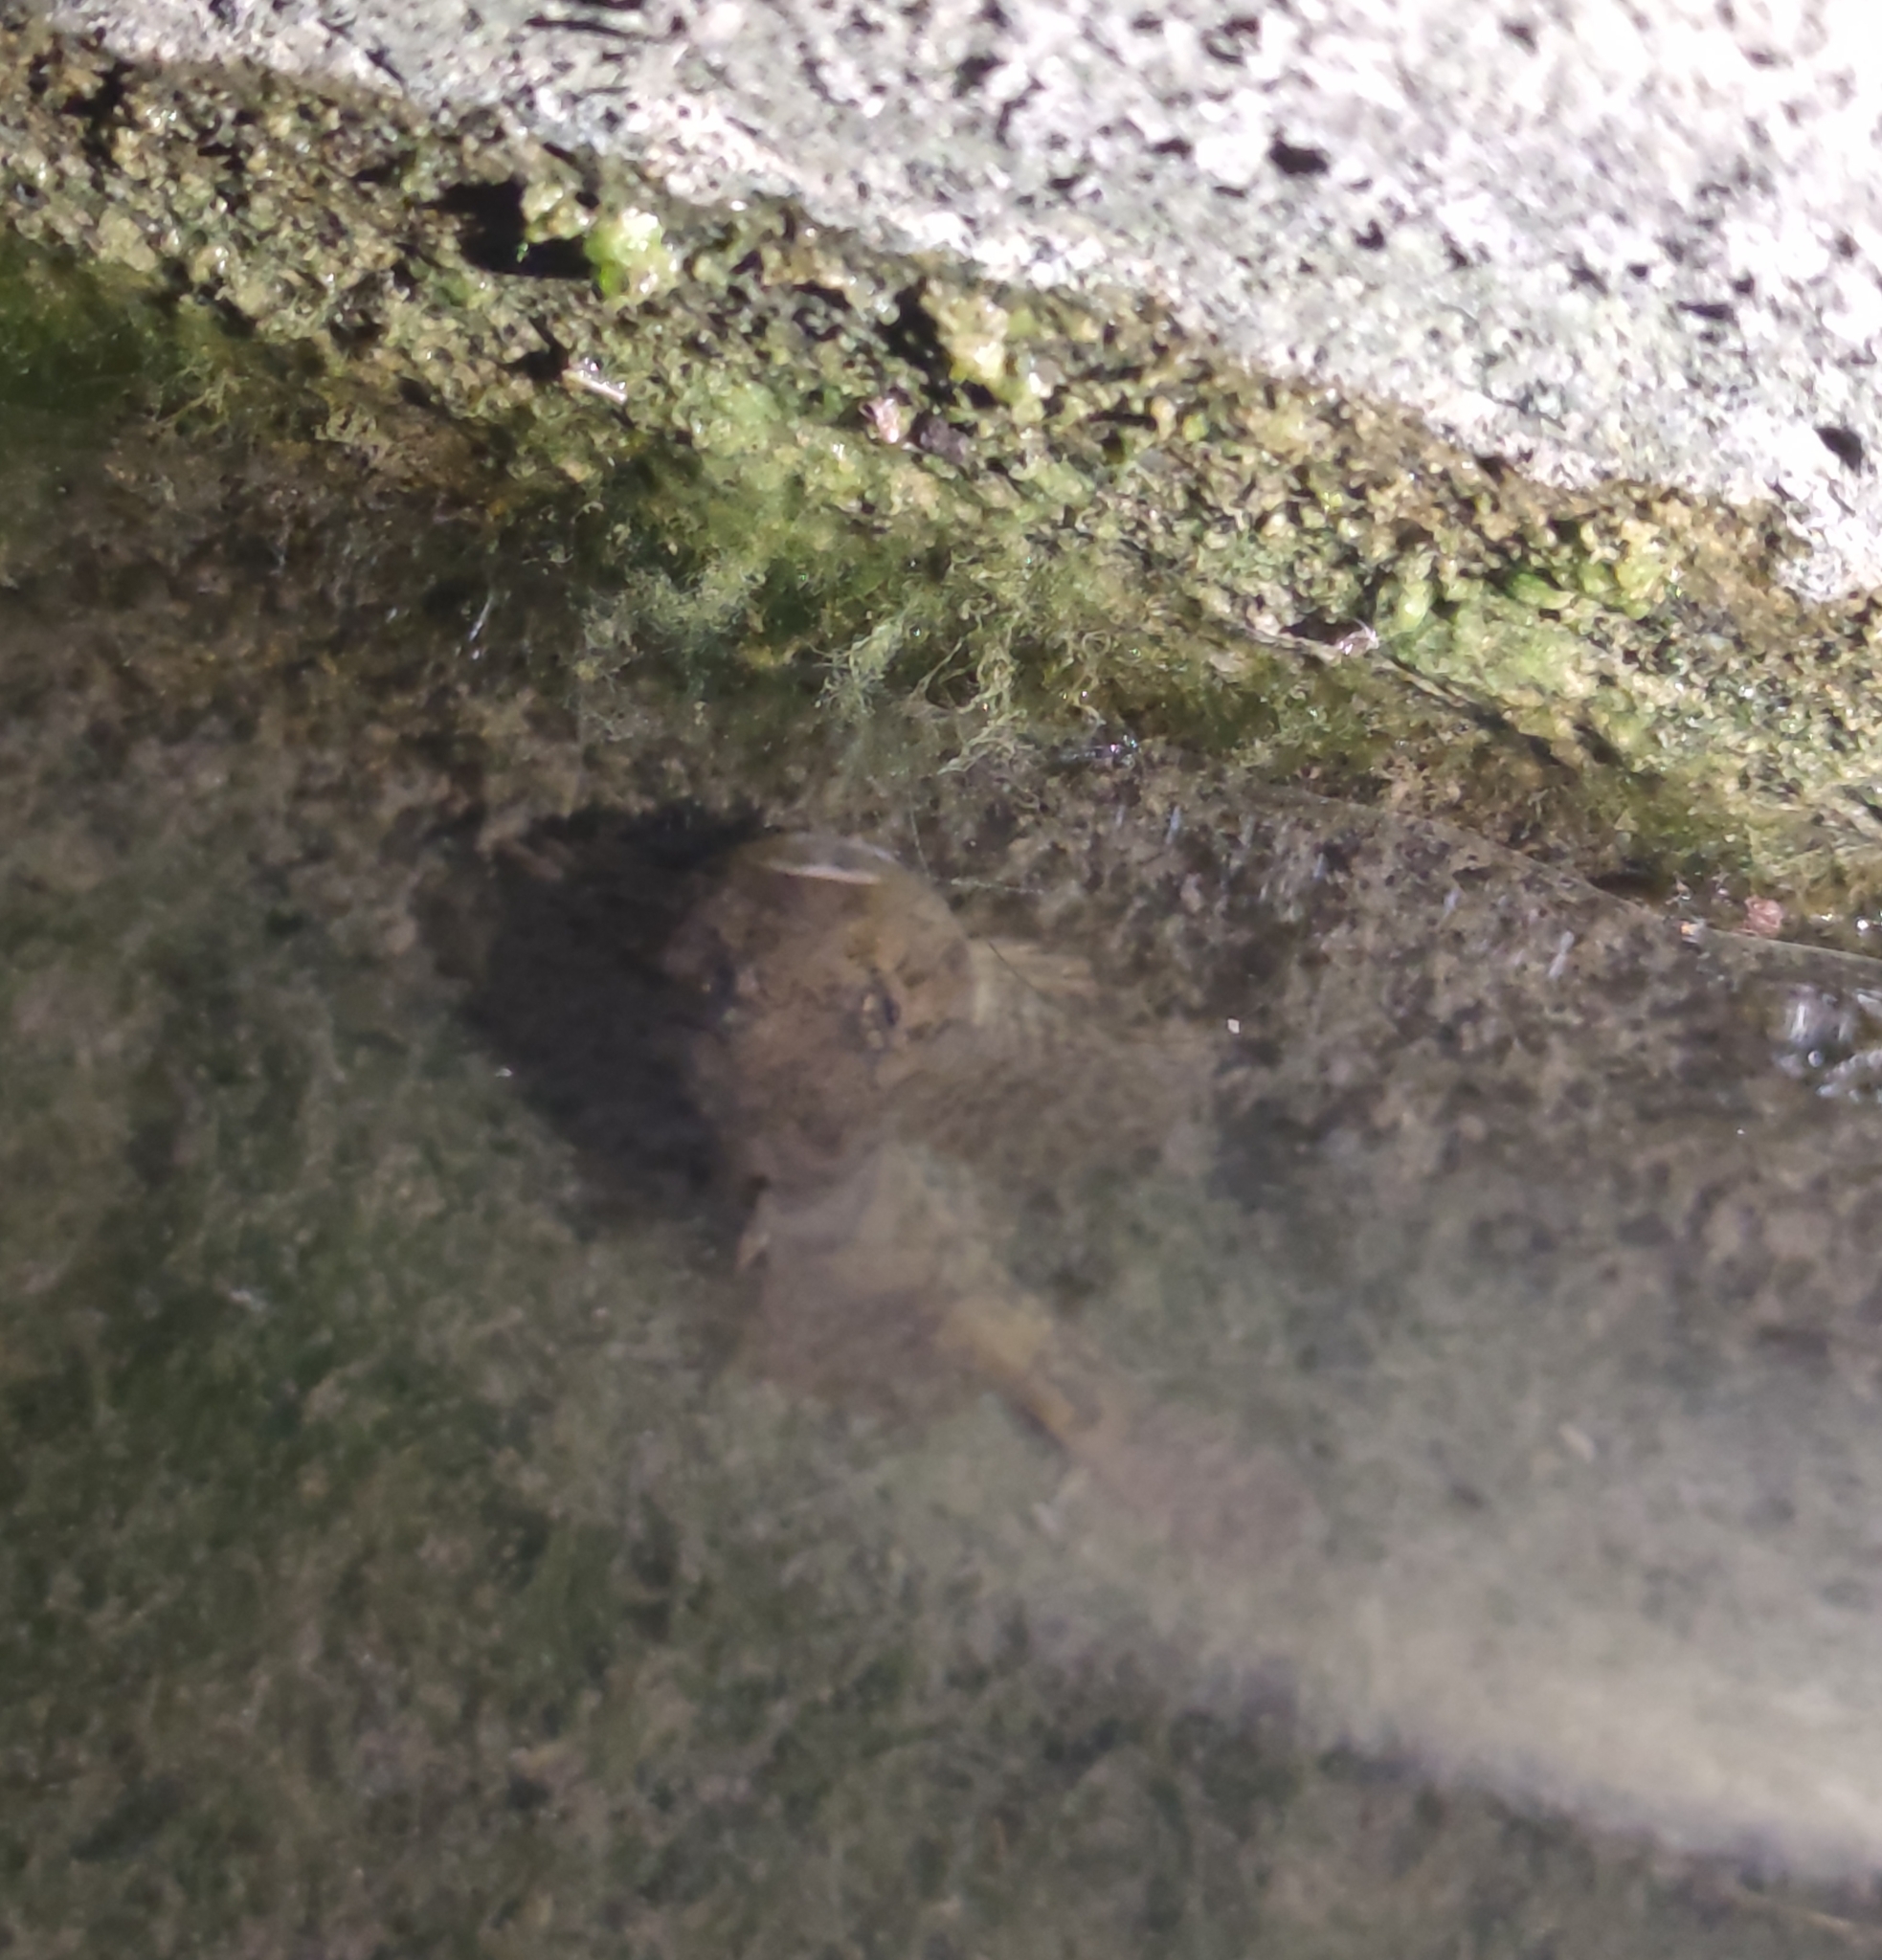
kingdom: Animalia
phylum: Chordata
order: Scorpaeniformes
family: Cottidae
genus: Cottus
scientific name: Cottus gobio
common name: Bullhead
